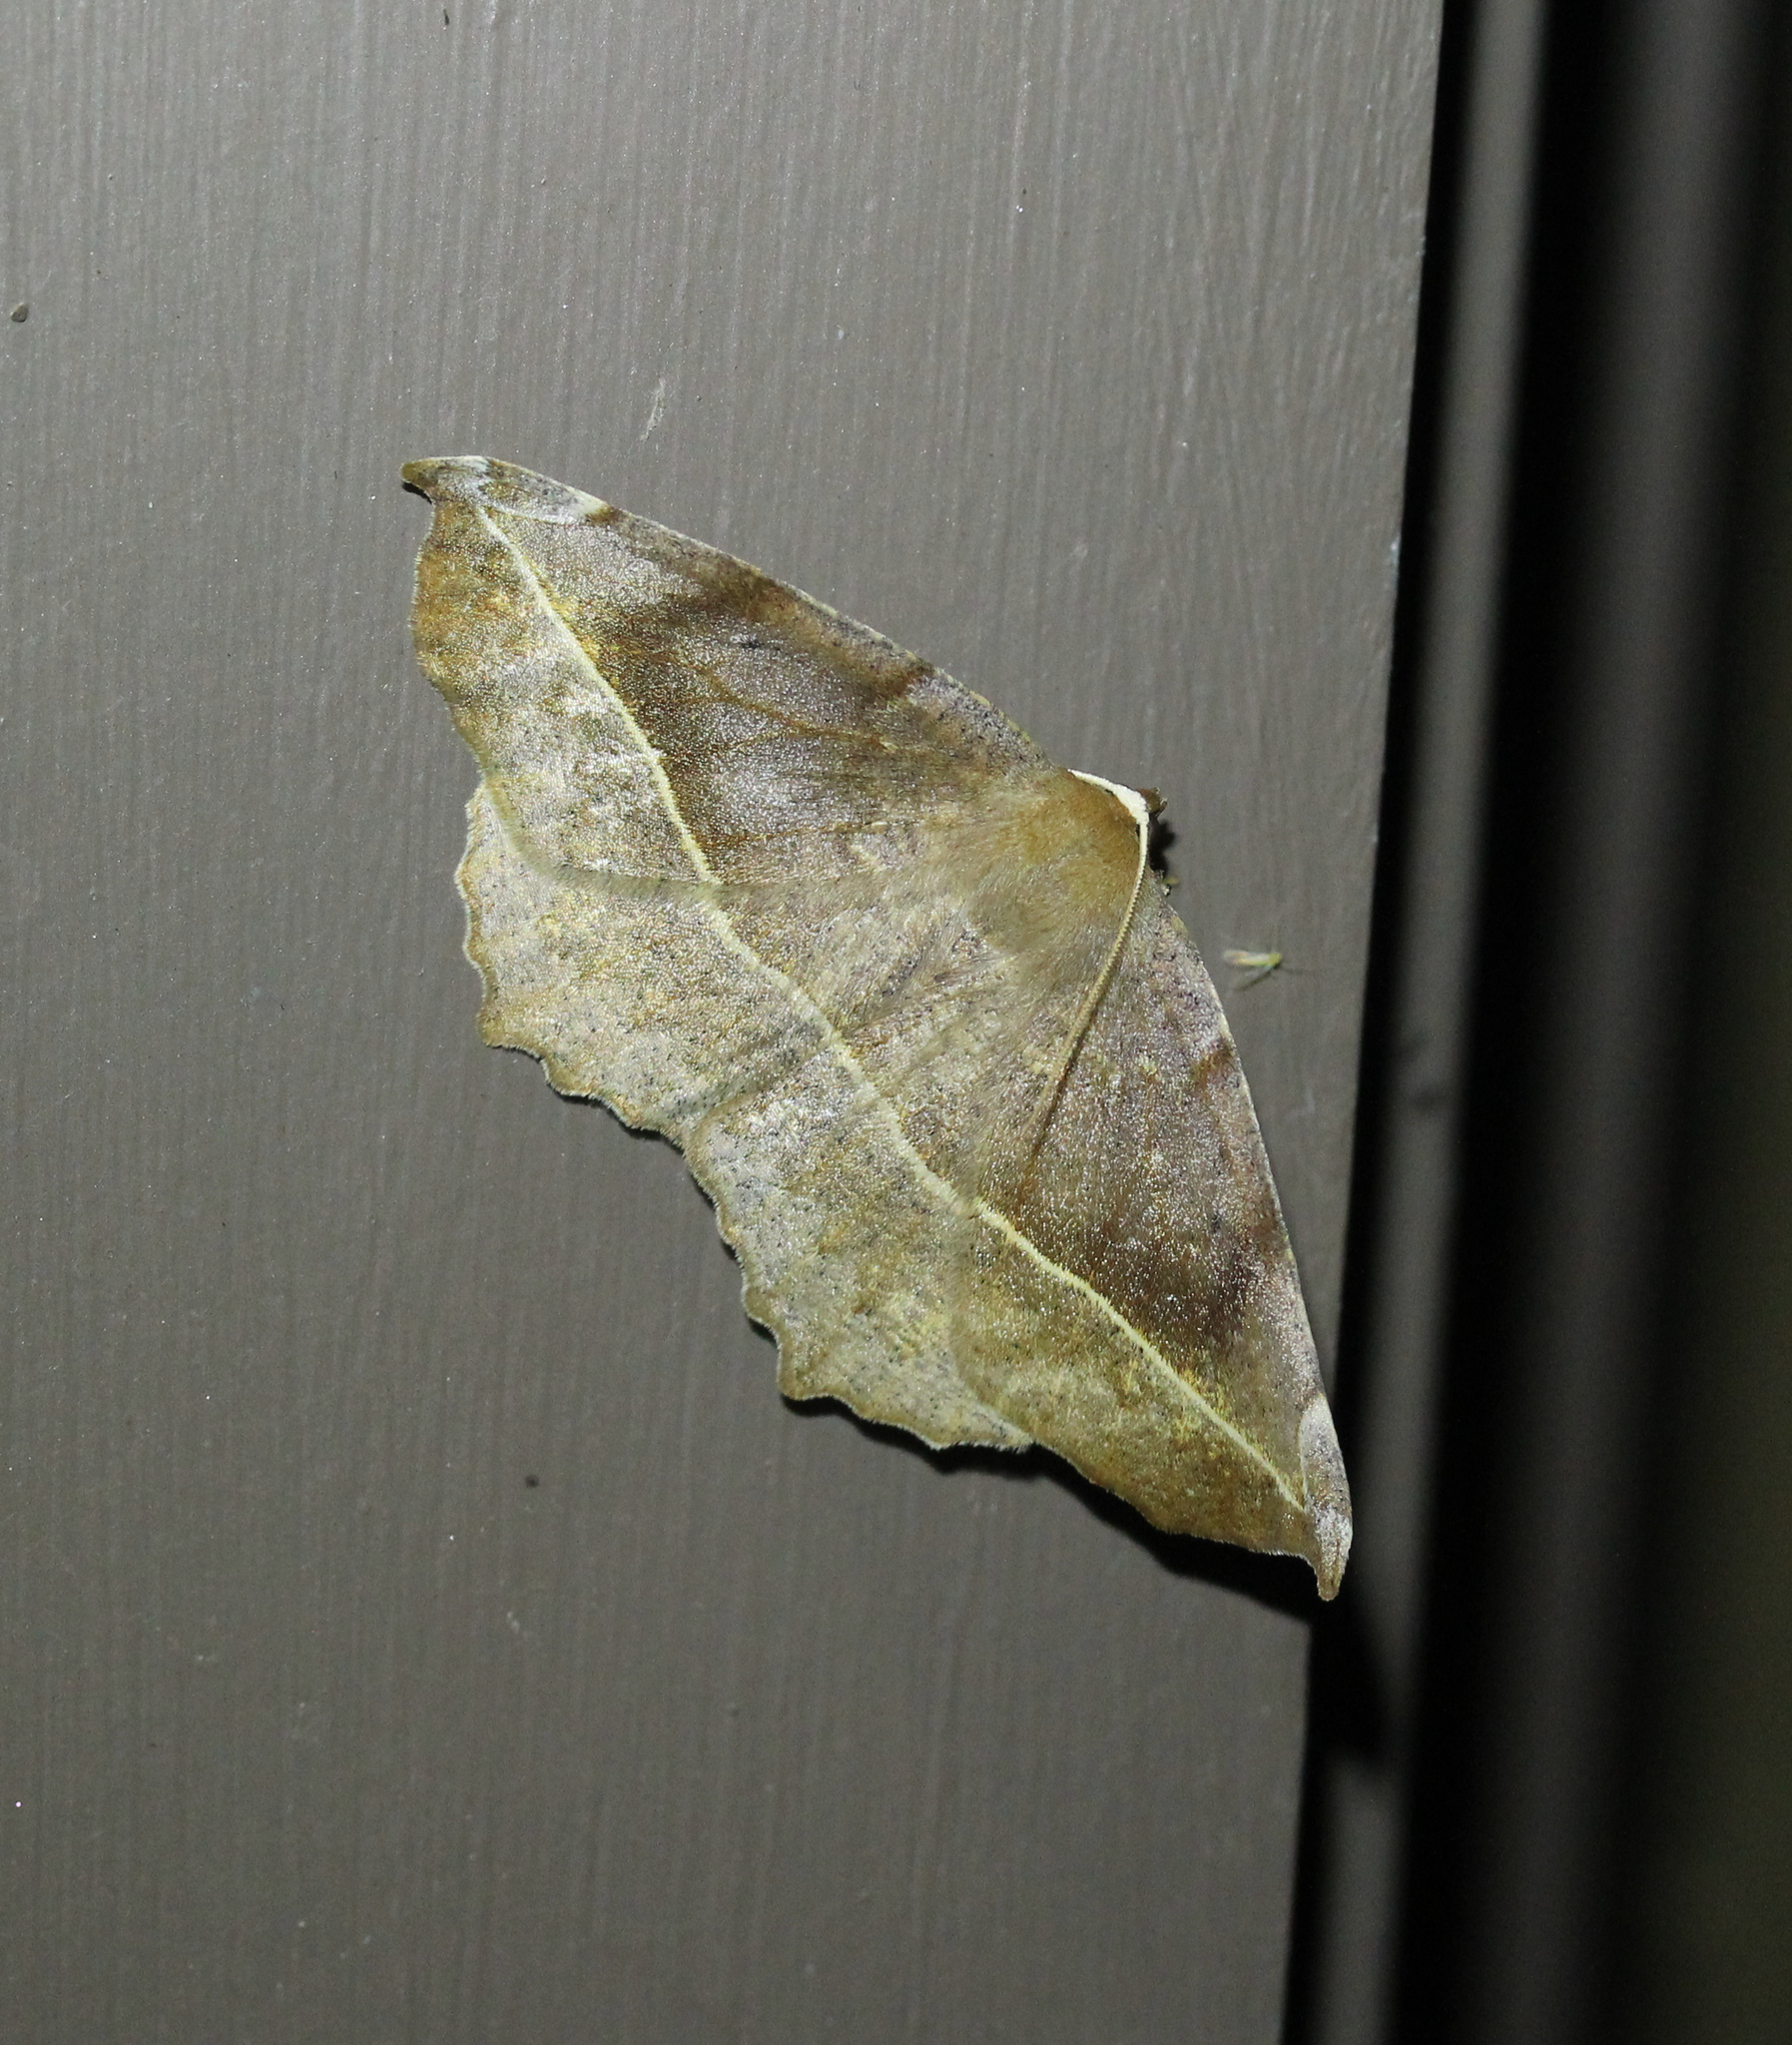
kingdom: Animalia
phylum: Arthropoda
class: Insecta
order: Lepidoptera
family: Geometridae
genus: Eutrapela
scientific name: Eutrapela clemataria
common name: Curved-toothed geometer
